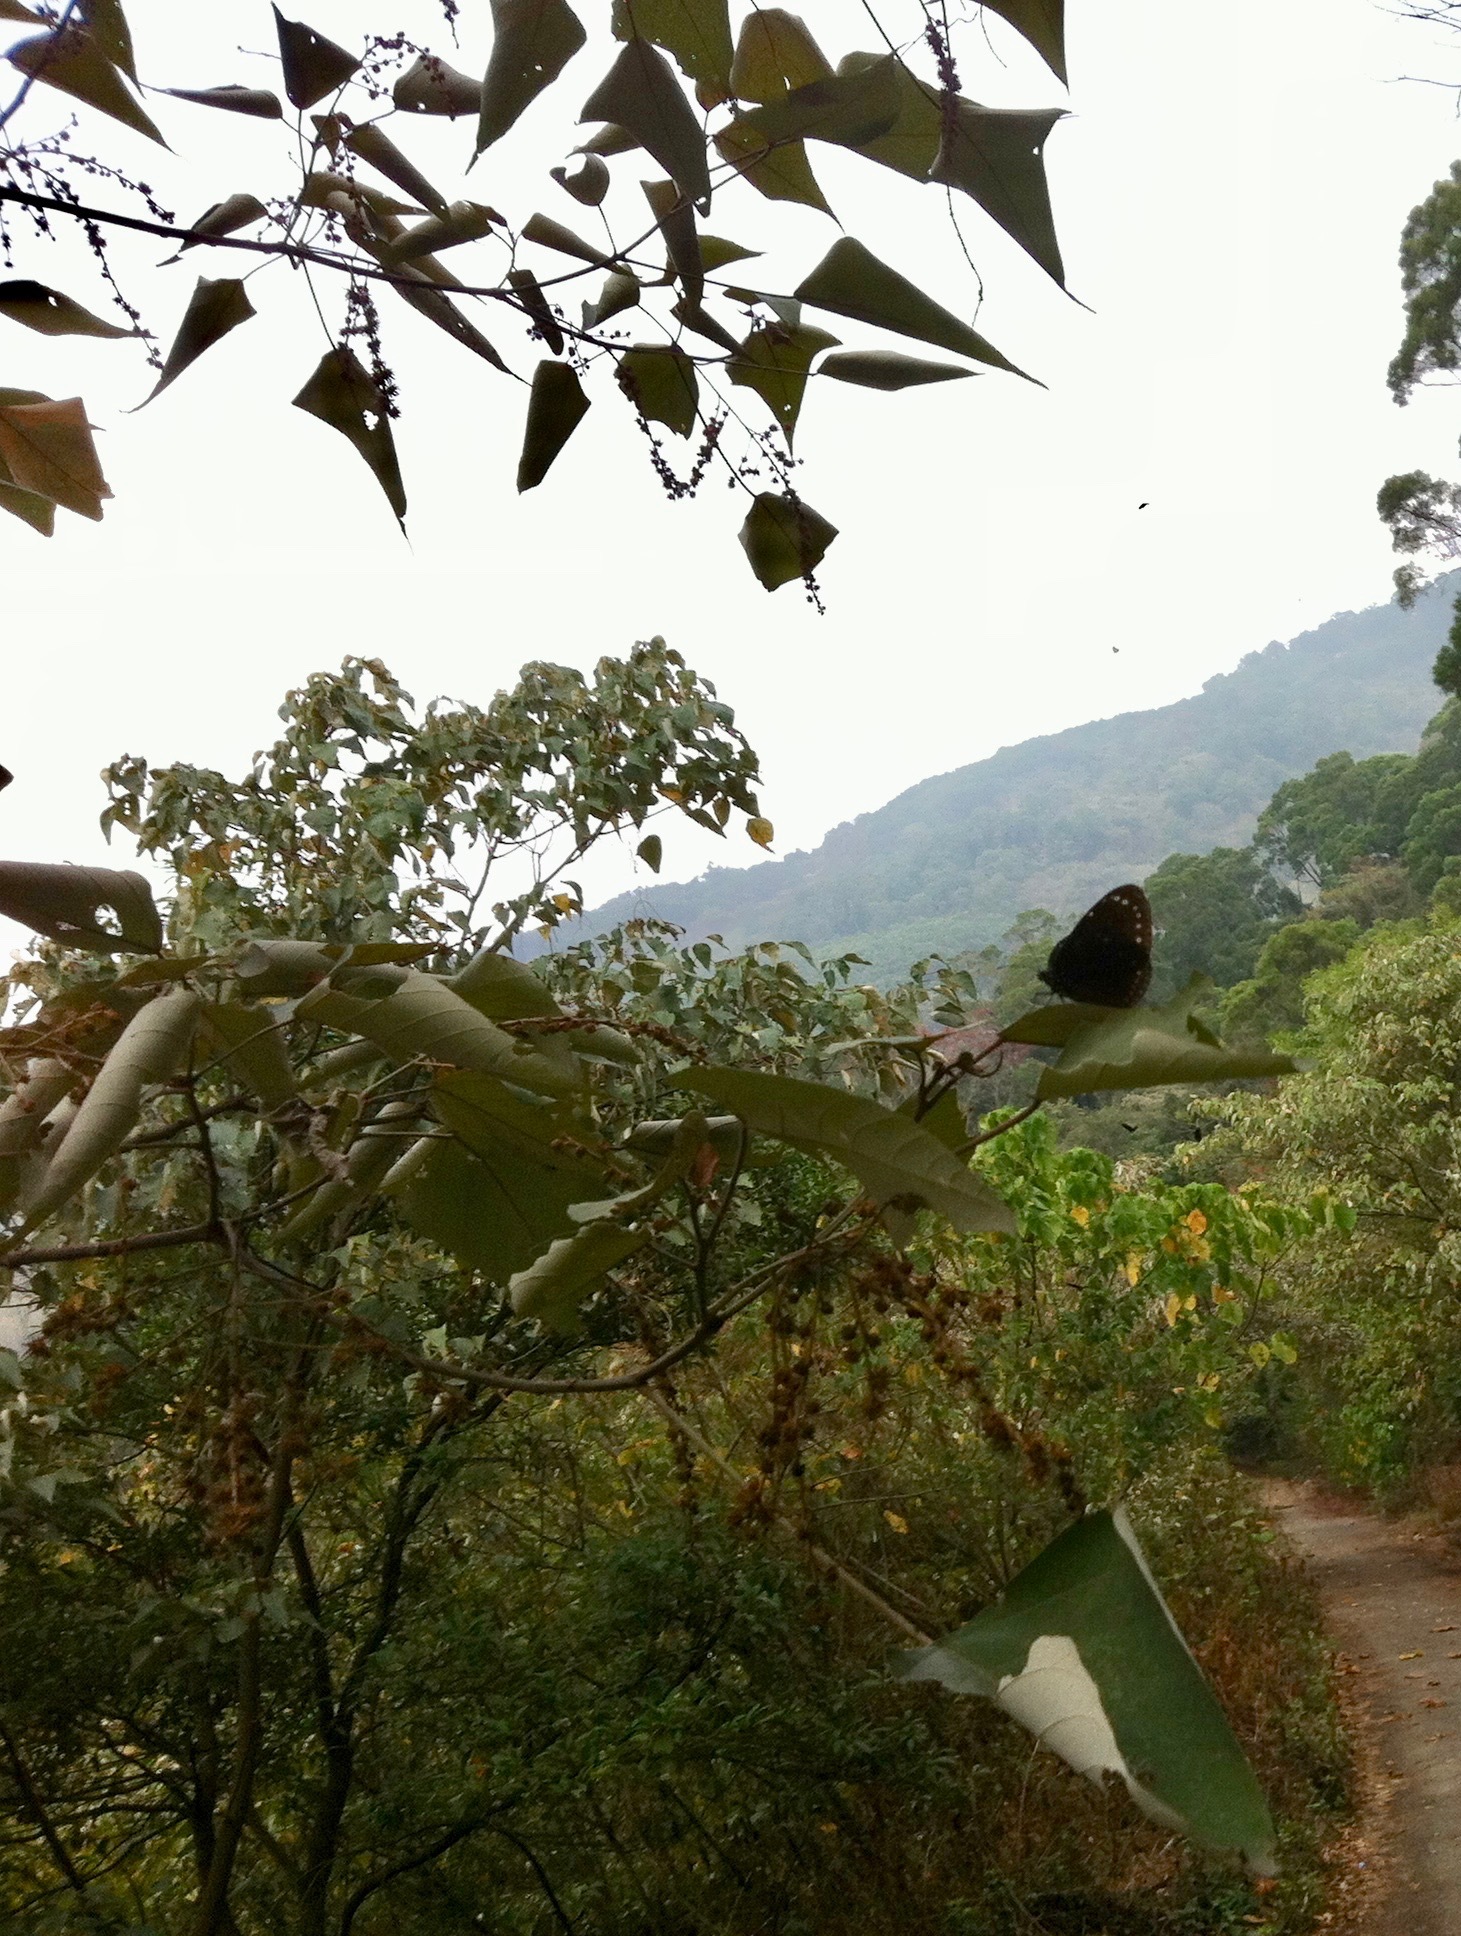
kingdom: Plantae
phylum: Tracheophyta
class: Magnoliopsida
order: Malpighiales
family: Euphorbiaceae
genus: Mallotus
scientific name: Mallotus paniculatus
